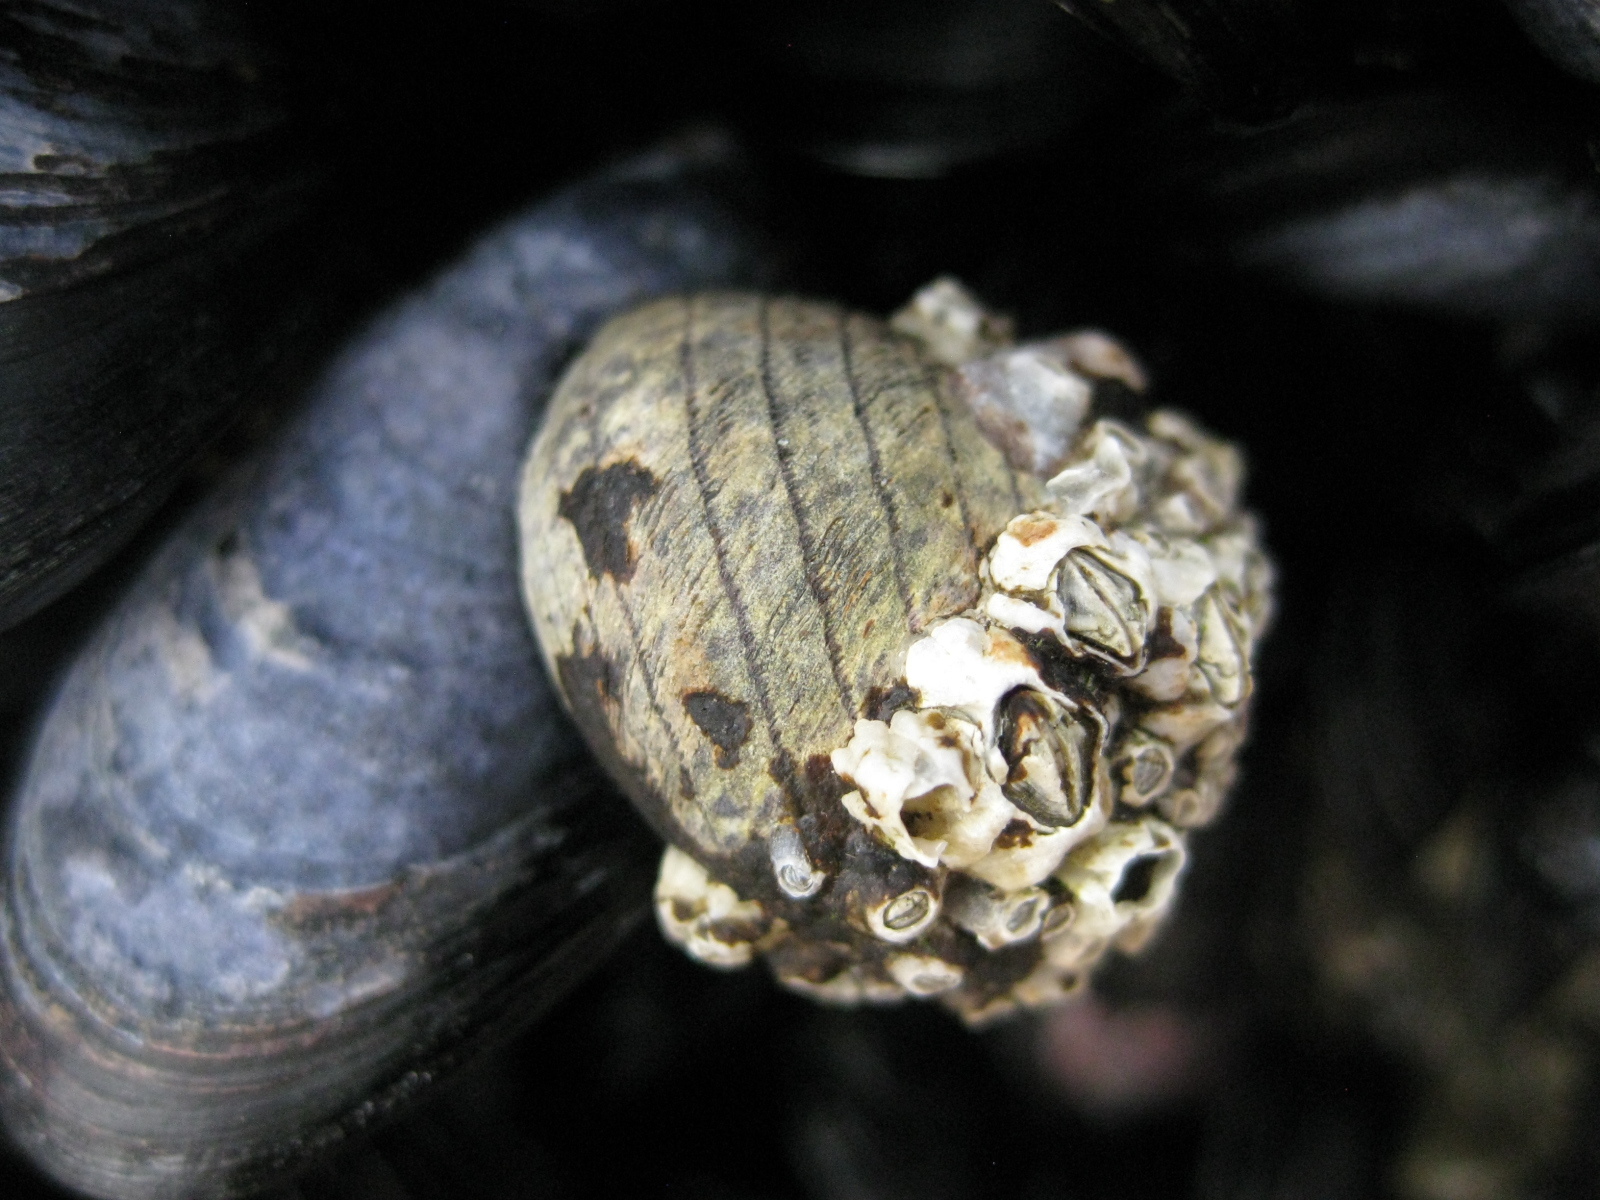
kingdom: Animalia
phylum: Mollusca
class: Gastropoda
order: Trochida
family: Trochidae
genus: Diloma
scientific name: Diloma aethiops
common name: Scorched monodont
